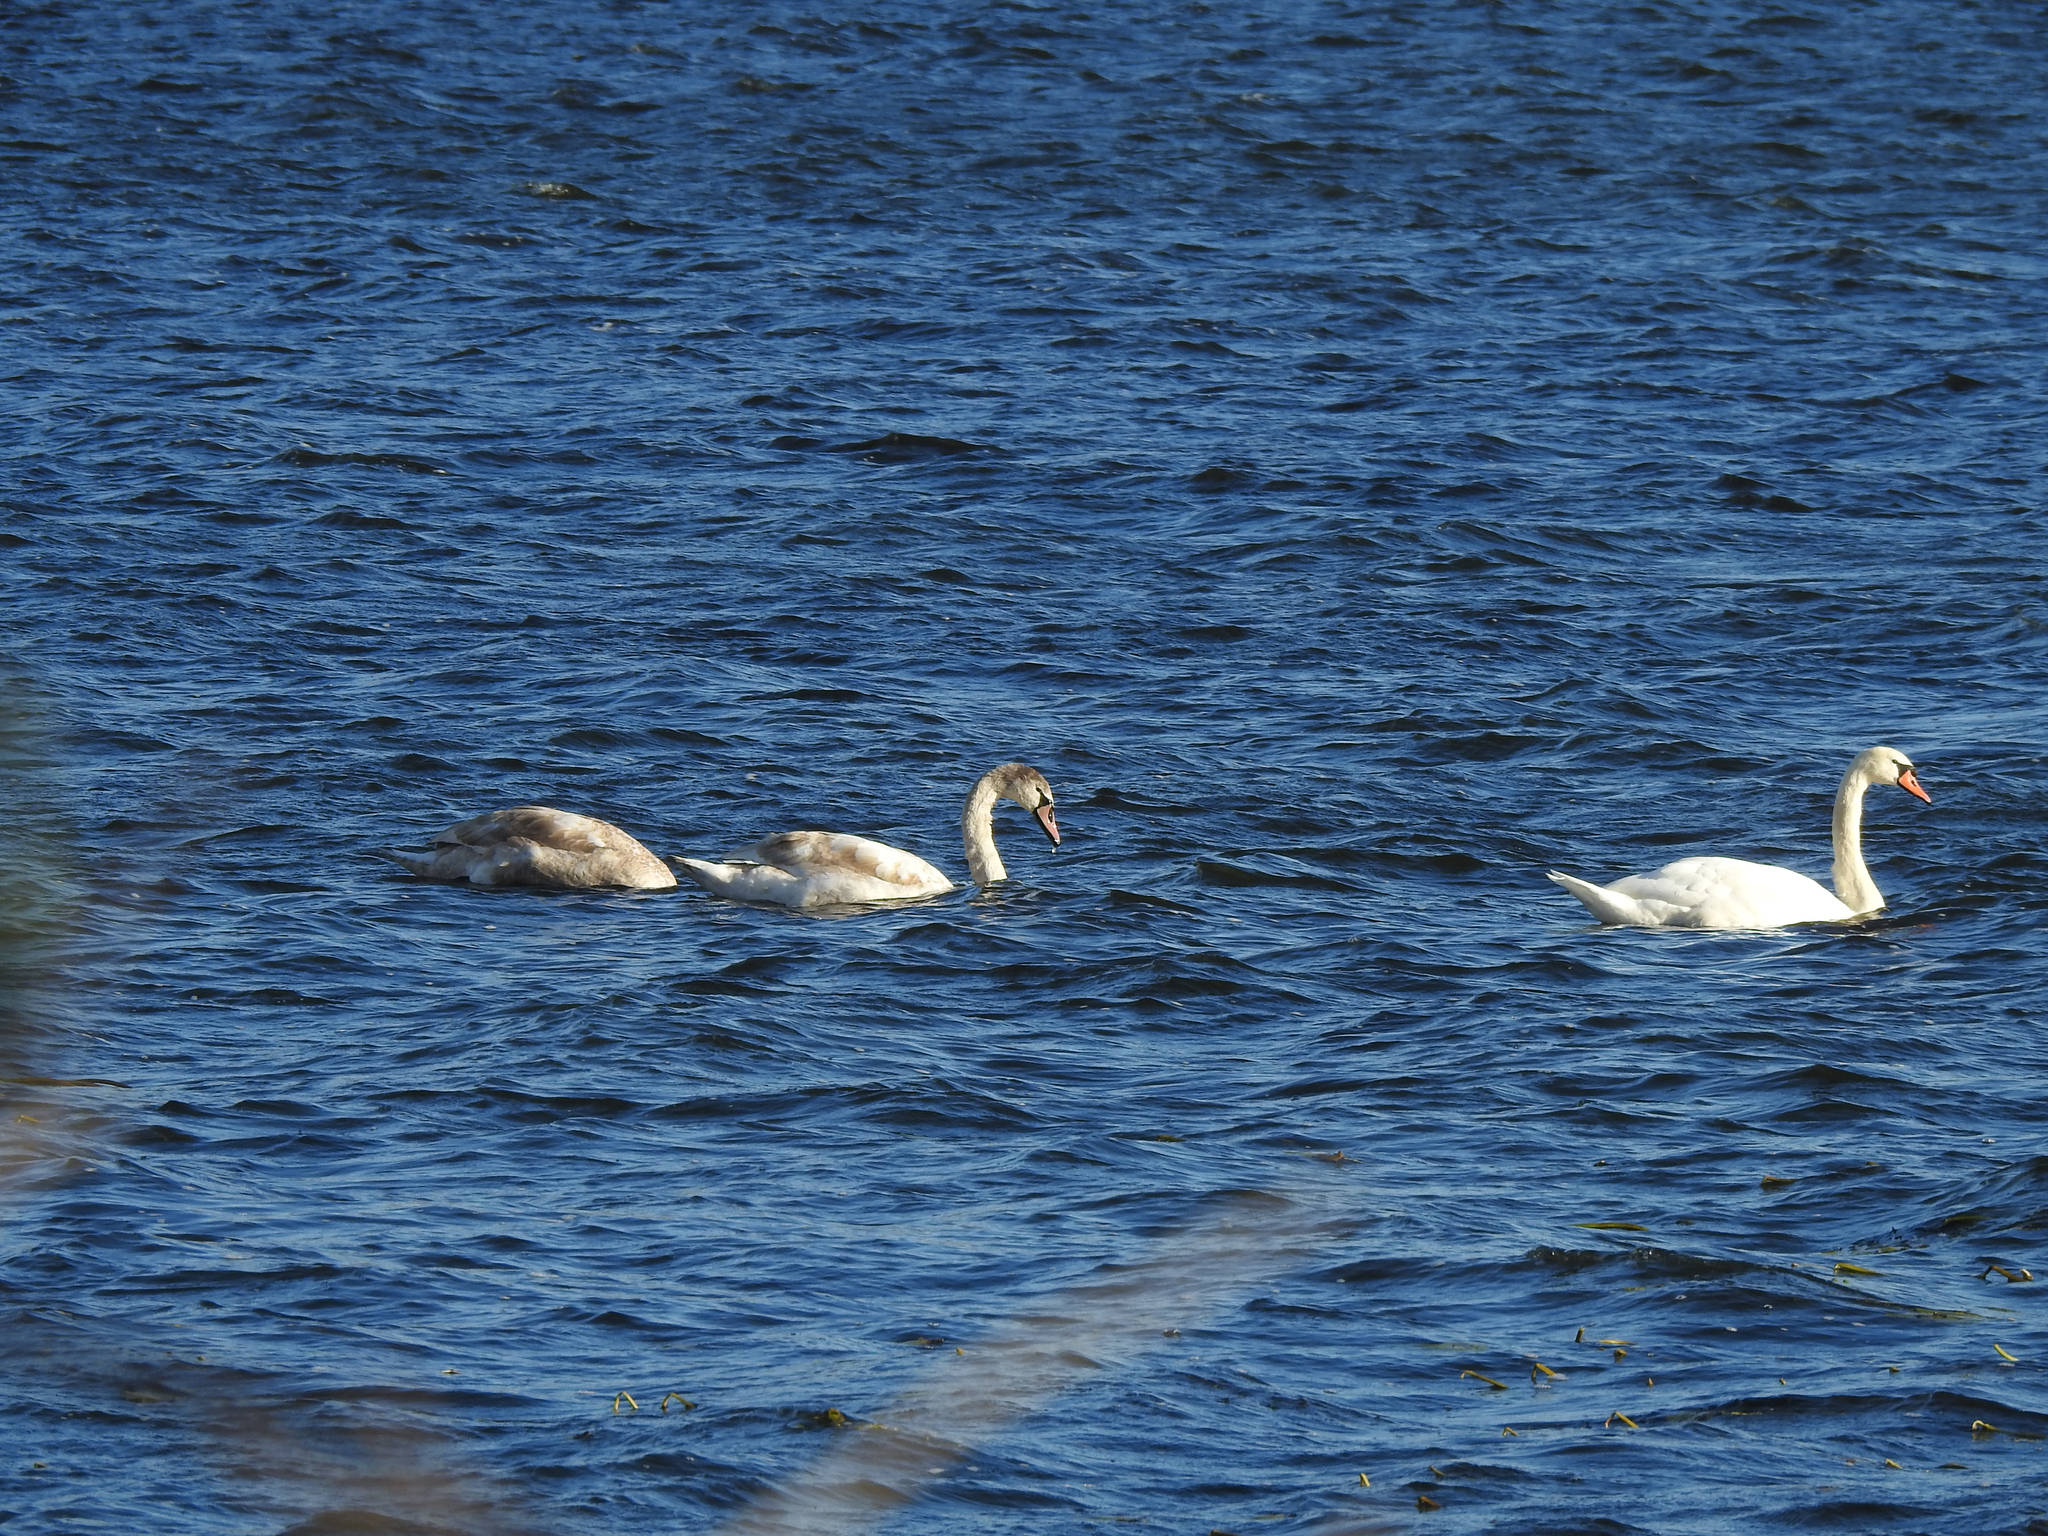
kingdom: Animalia
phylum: Chordata
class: Aves
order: Anseriformes
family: Anatidae
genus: Cygnus
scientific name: Cygnus olor
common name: Mute swan
